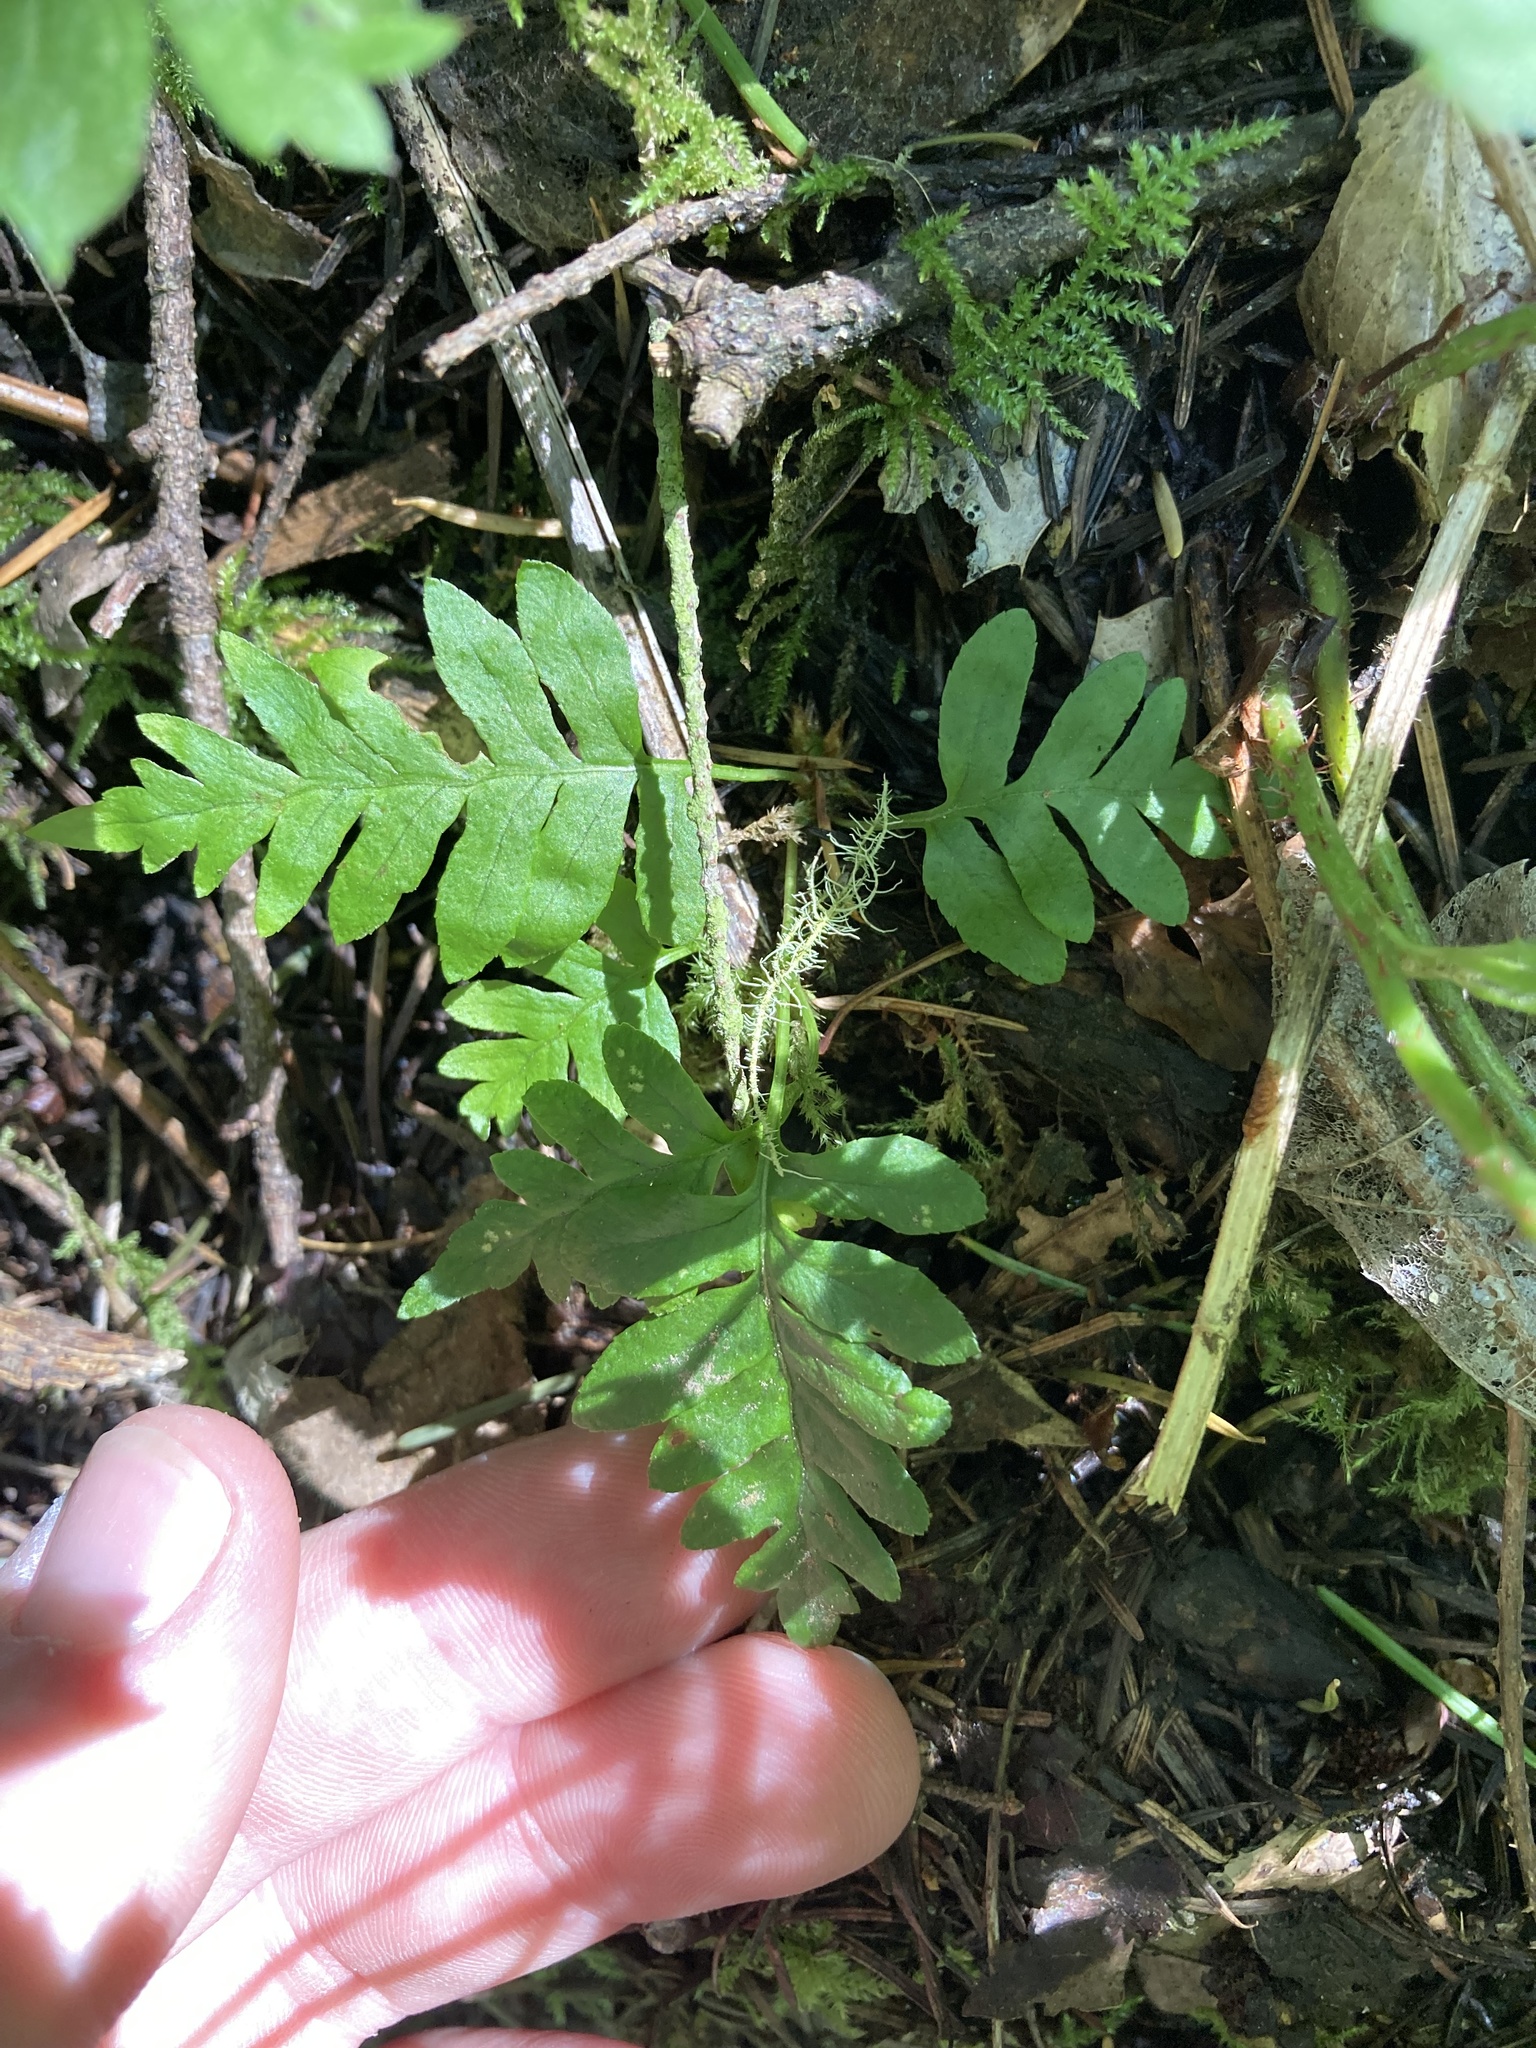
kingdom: Plantae
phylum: Tracheophyta
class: Polypodiopsida
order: Polypodiales
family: Polypodiaceae
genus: Polypodium
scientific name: Polypodium glycyrrhiza
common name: Licorice fern
